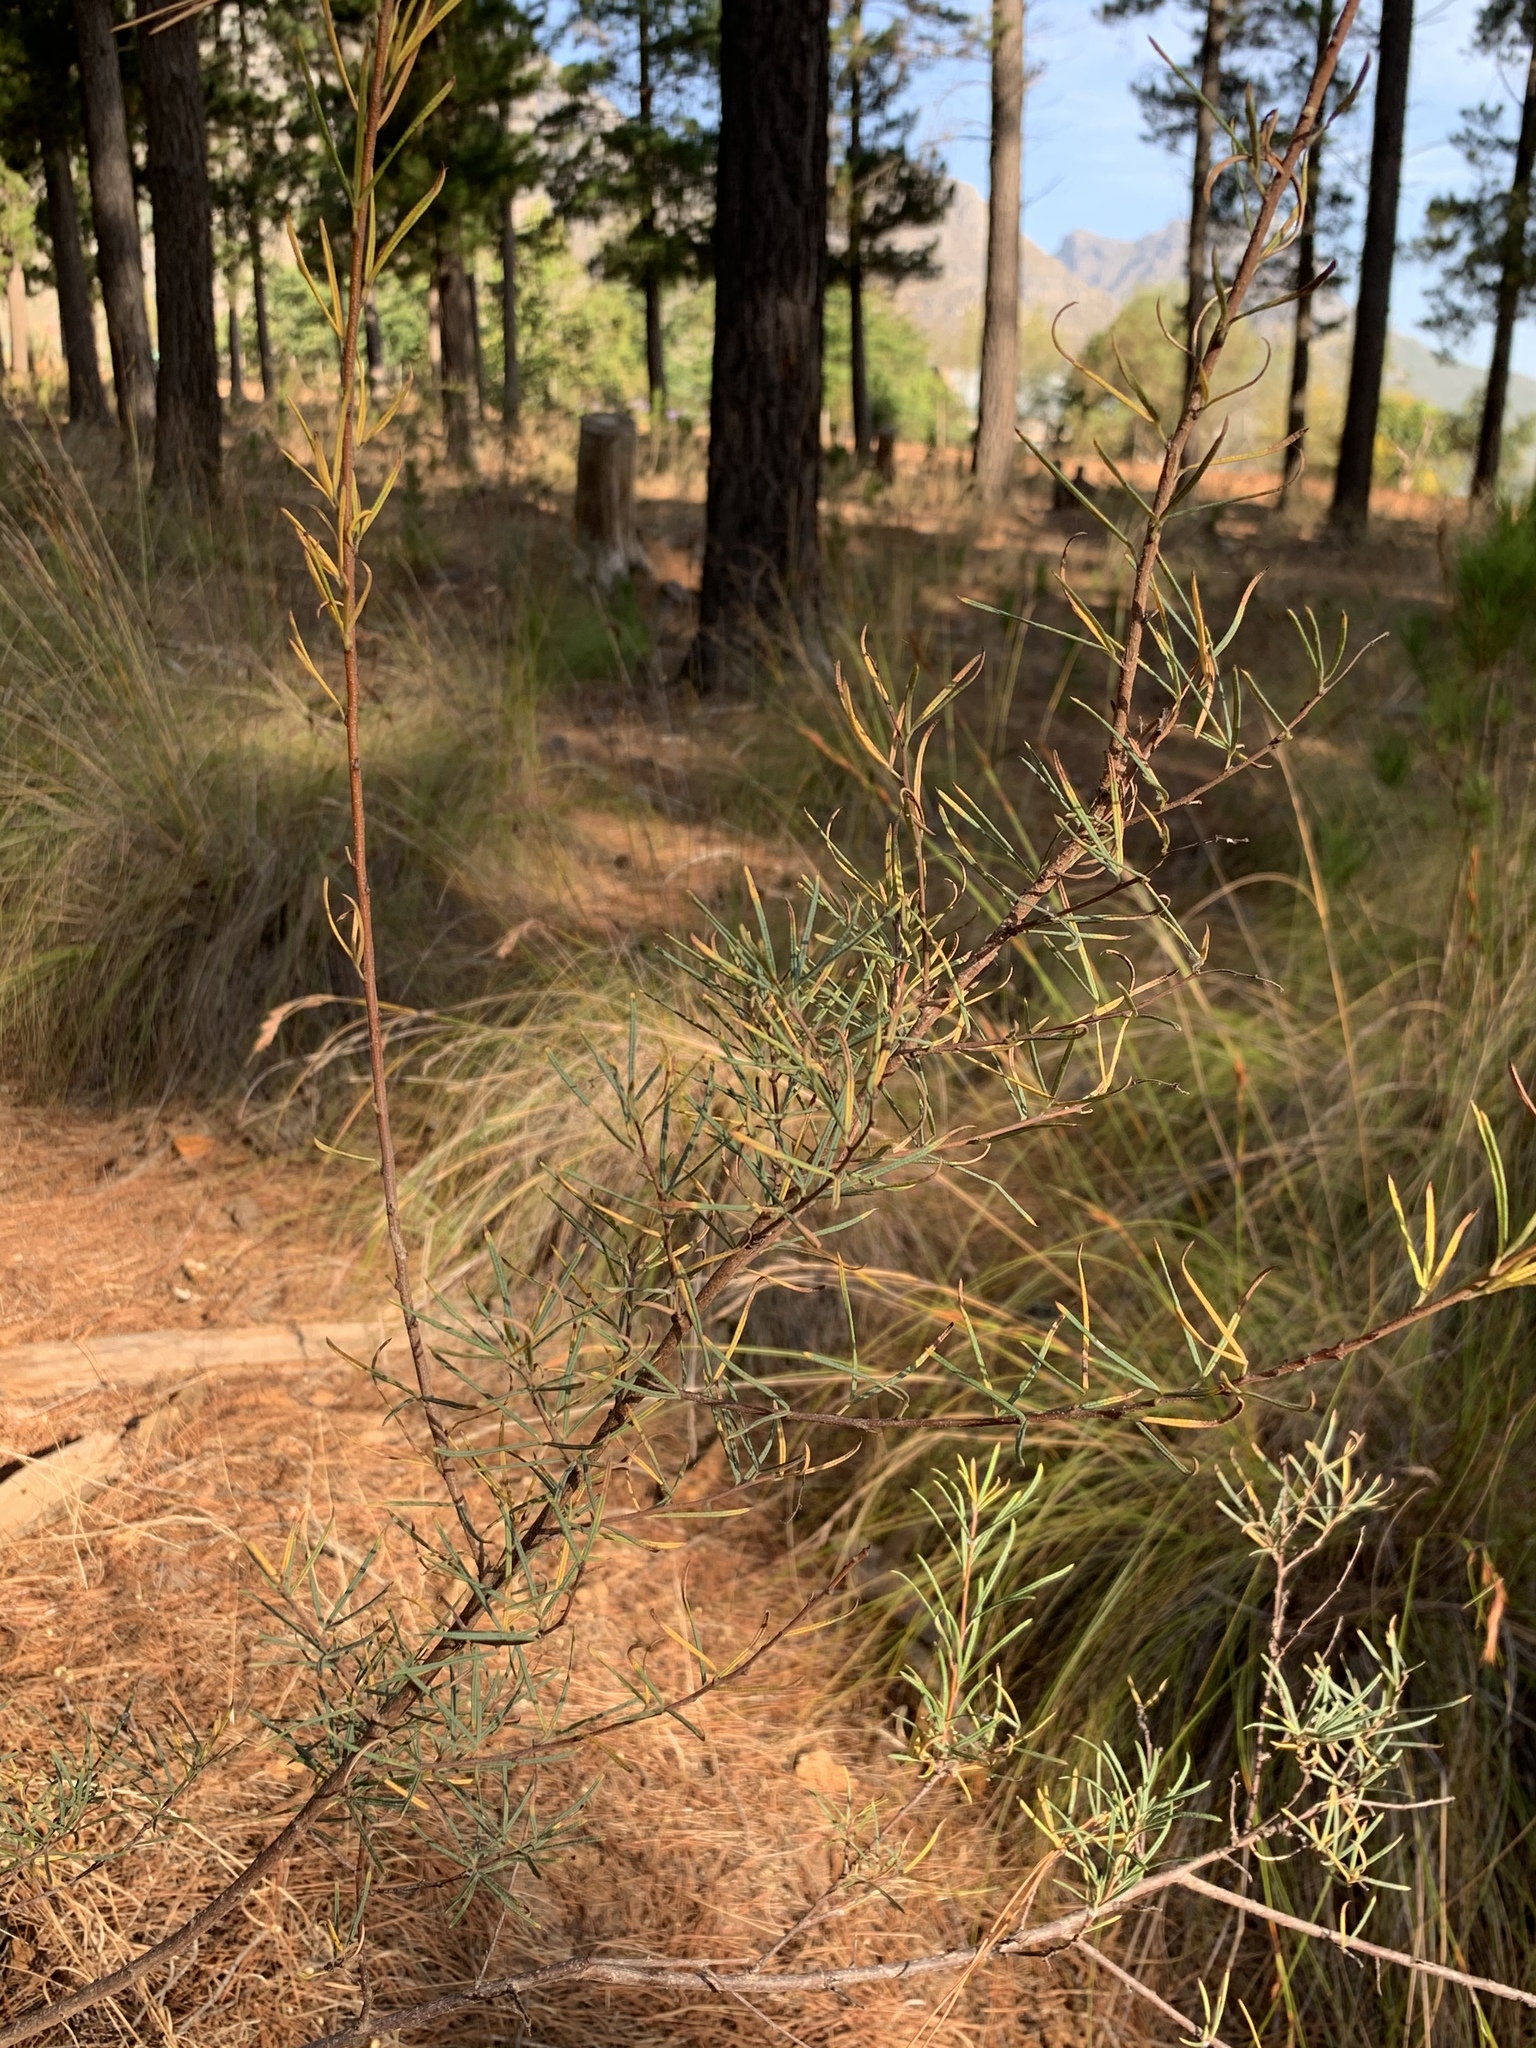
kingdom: Plantae
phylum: Tracheophyta
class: Magnoliopsida
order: Sapindales
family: Anacardiaceae
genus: Searsia
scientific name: Searsia rosmarinifolia
